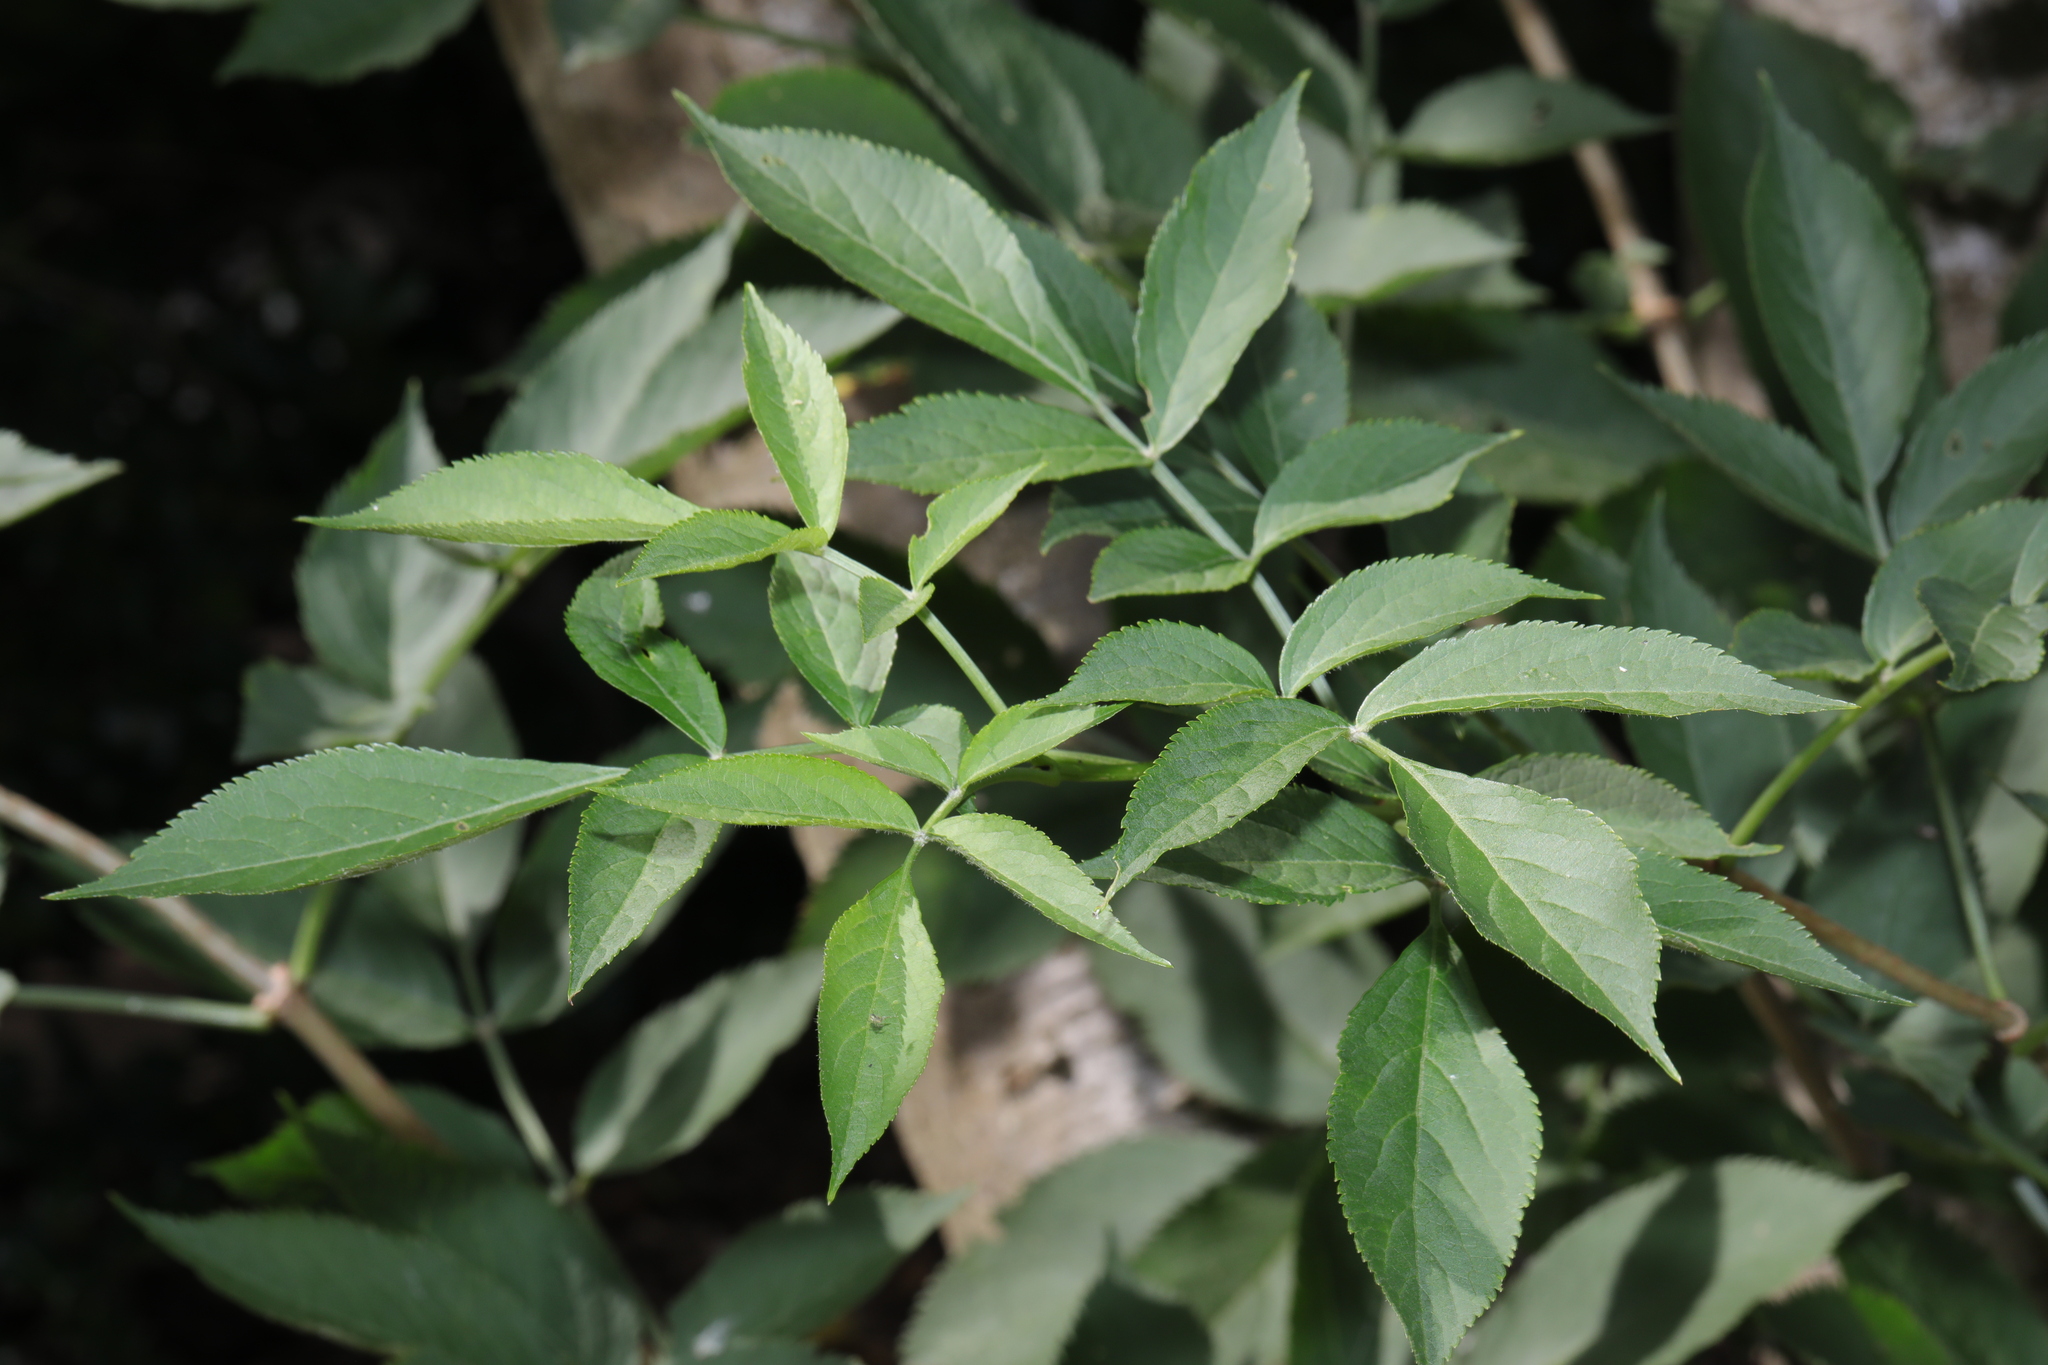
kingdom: Plantae
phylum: Tracheophyta
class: Magnoliopsida
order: Dipsacales
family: Viburnaceae
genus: Sambucus
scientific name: Sambucus nigra
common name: Elder
